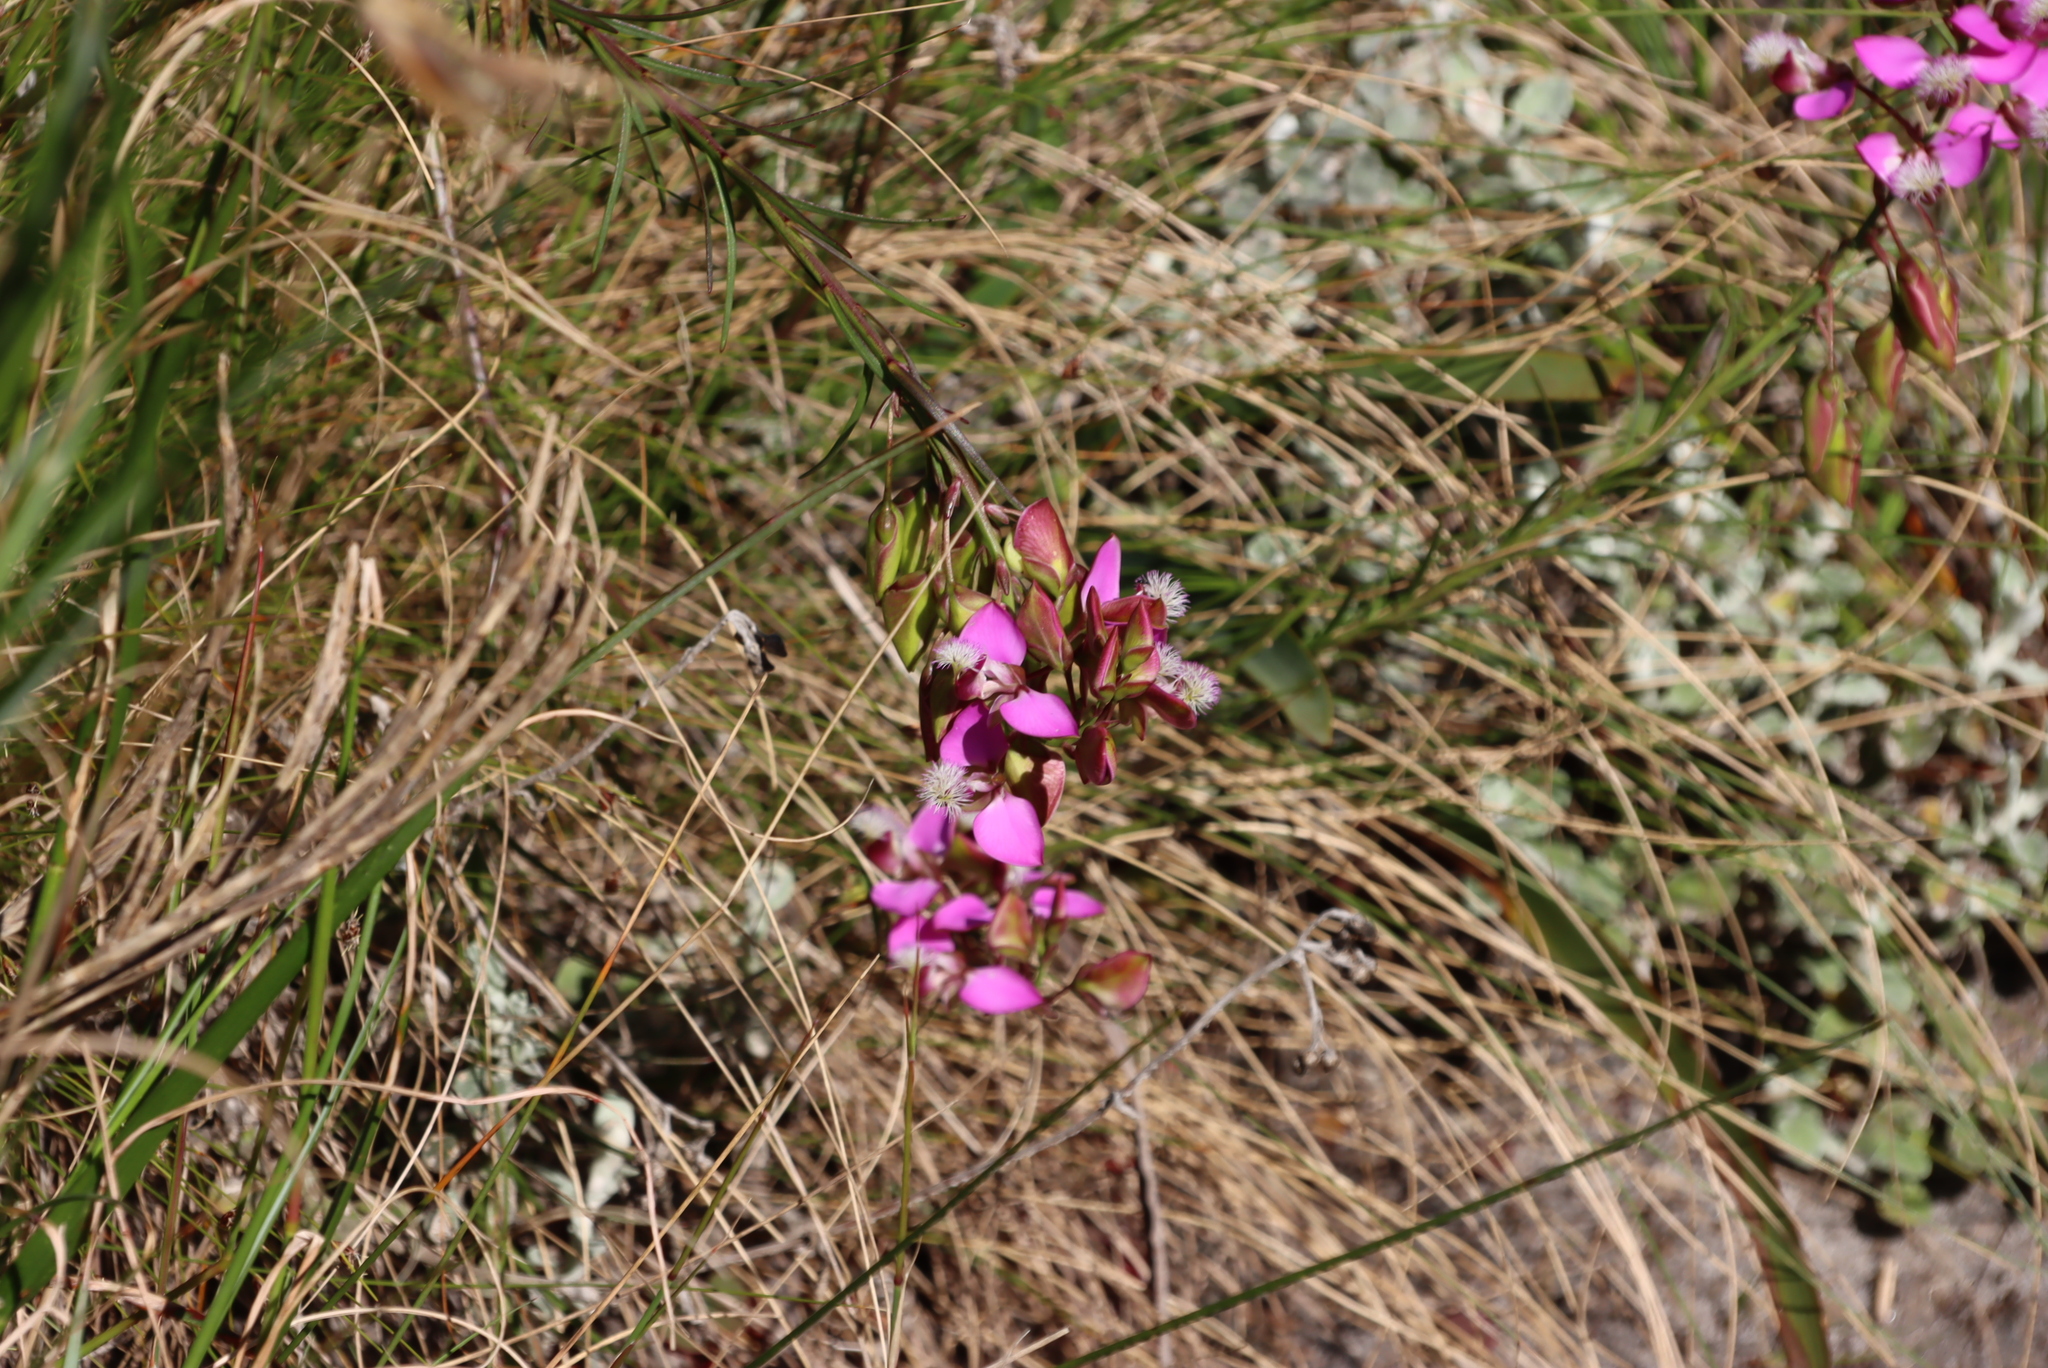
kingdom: Plantae
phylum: Tracheophyta
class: Magnoliopsida
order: Fabales
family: Polygalaceae
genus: Polygala
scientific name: Polygala bracteolata
